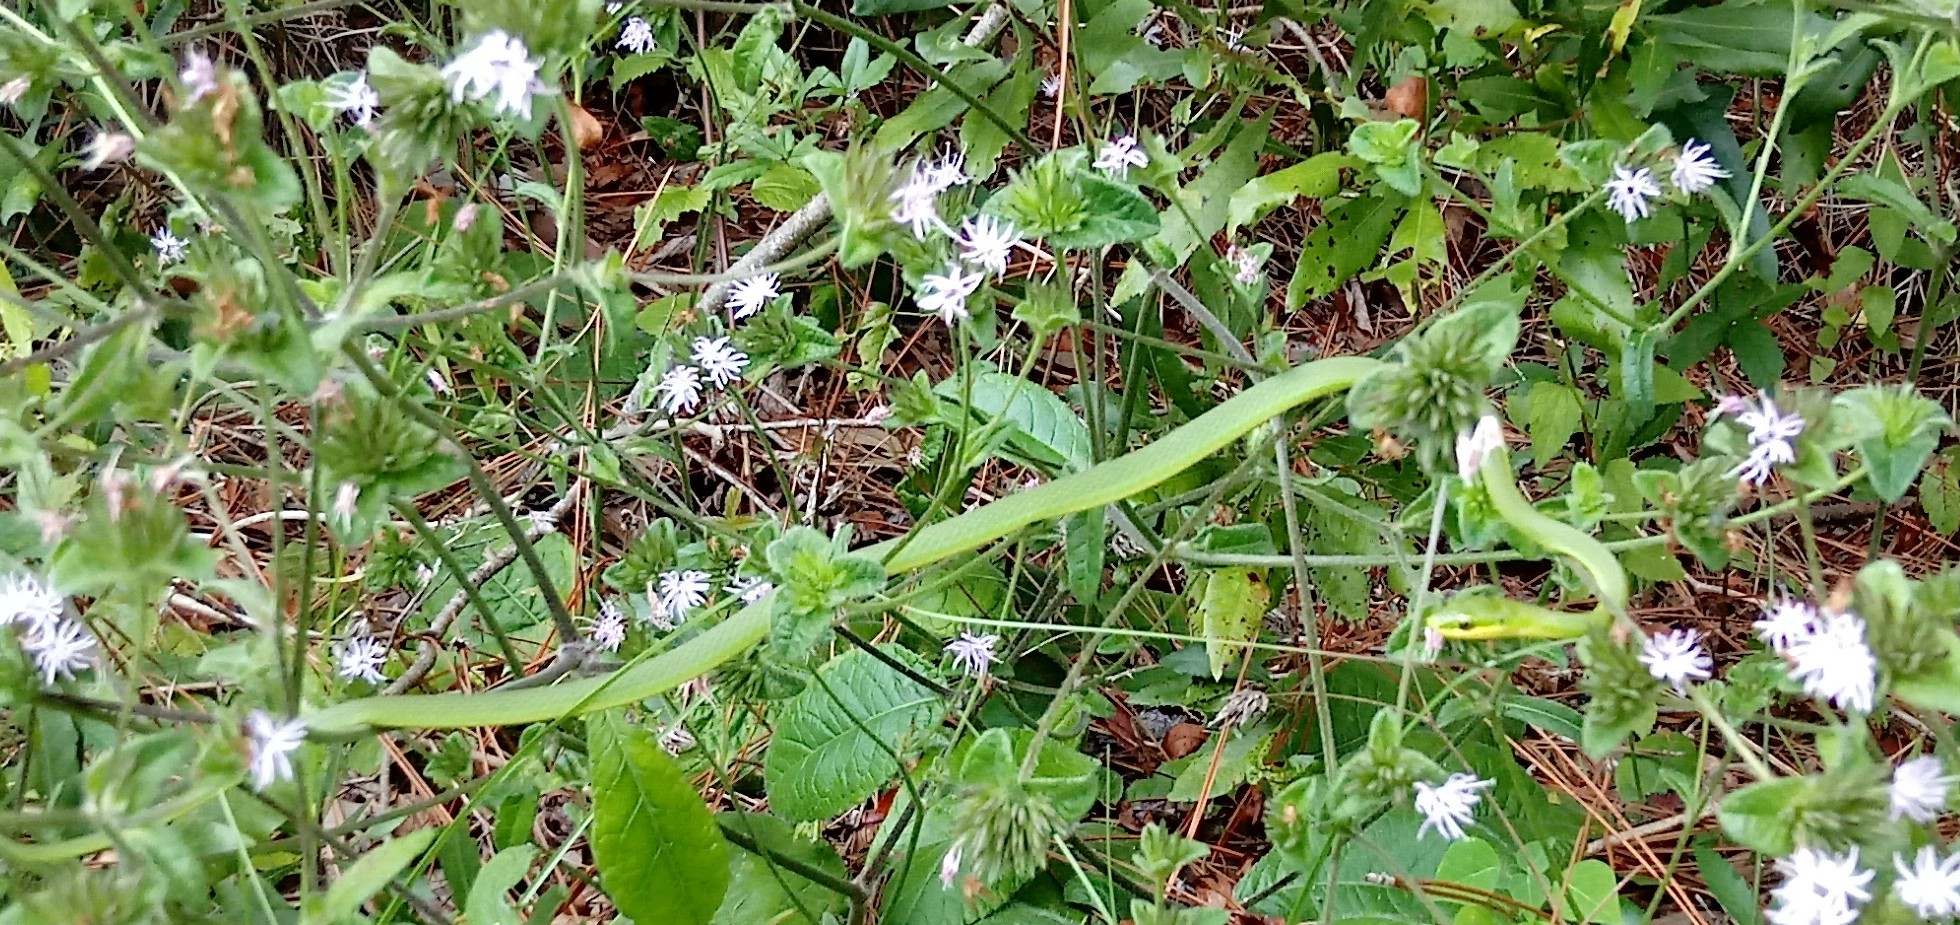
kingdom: Animalia
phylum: Chordata
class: Squamata
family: Colubridae
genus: Opheodrys
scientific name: Opheodrys aestivus
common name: Rough greensnake
